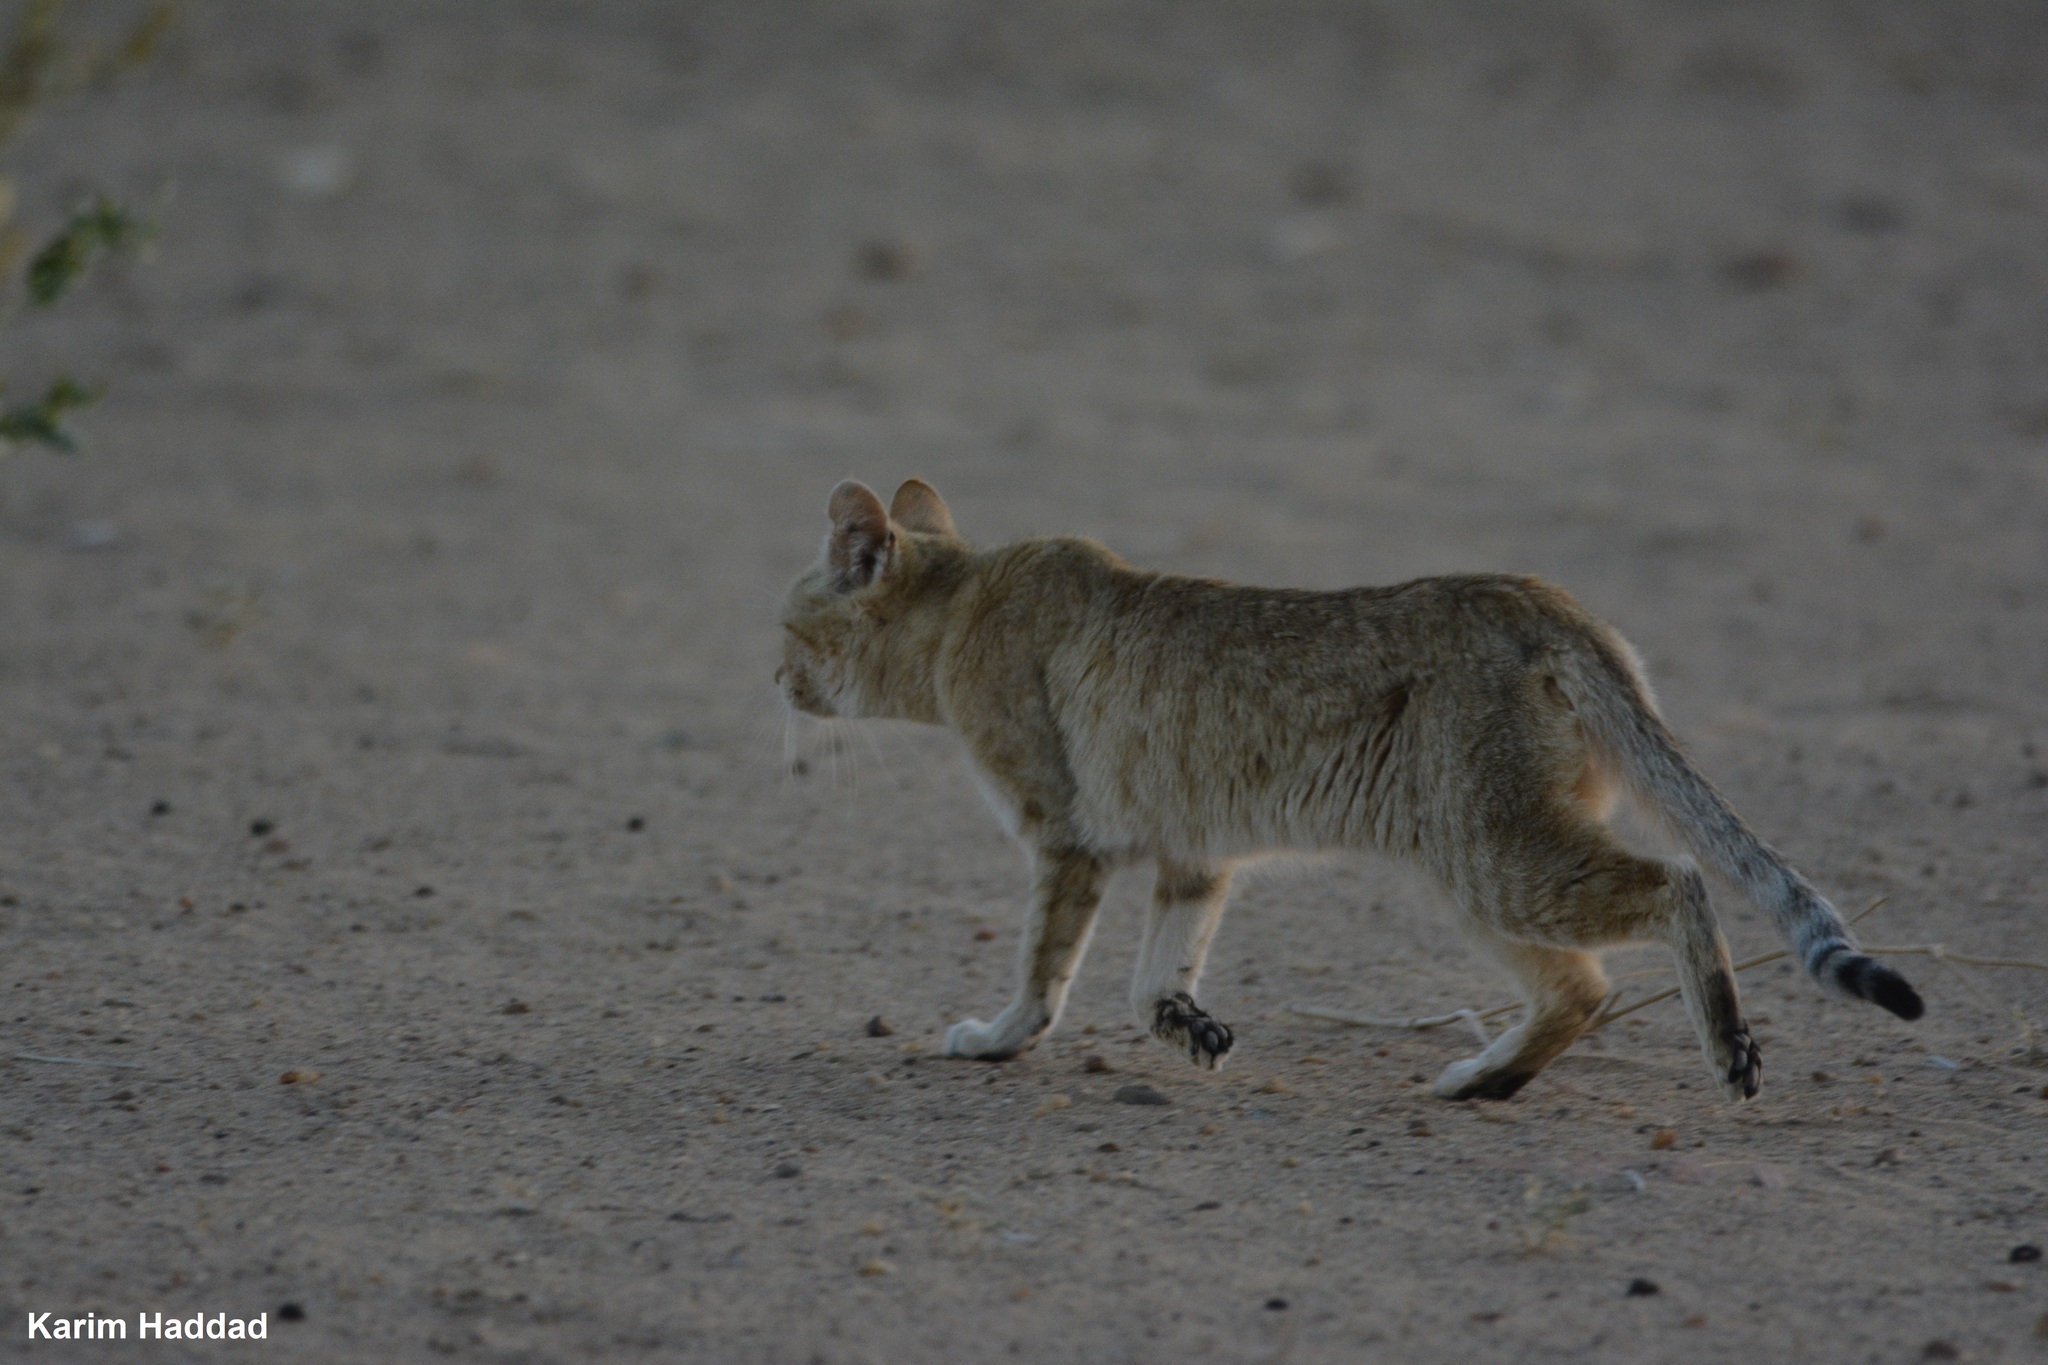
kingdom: Animalia
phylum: Chordata
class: Mammalia
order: Carnivora
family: Felidae
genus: Felis
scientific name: Felis silvestris
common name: Wildcat
